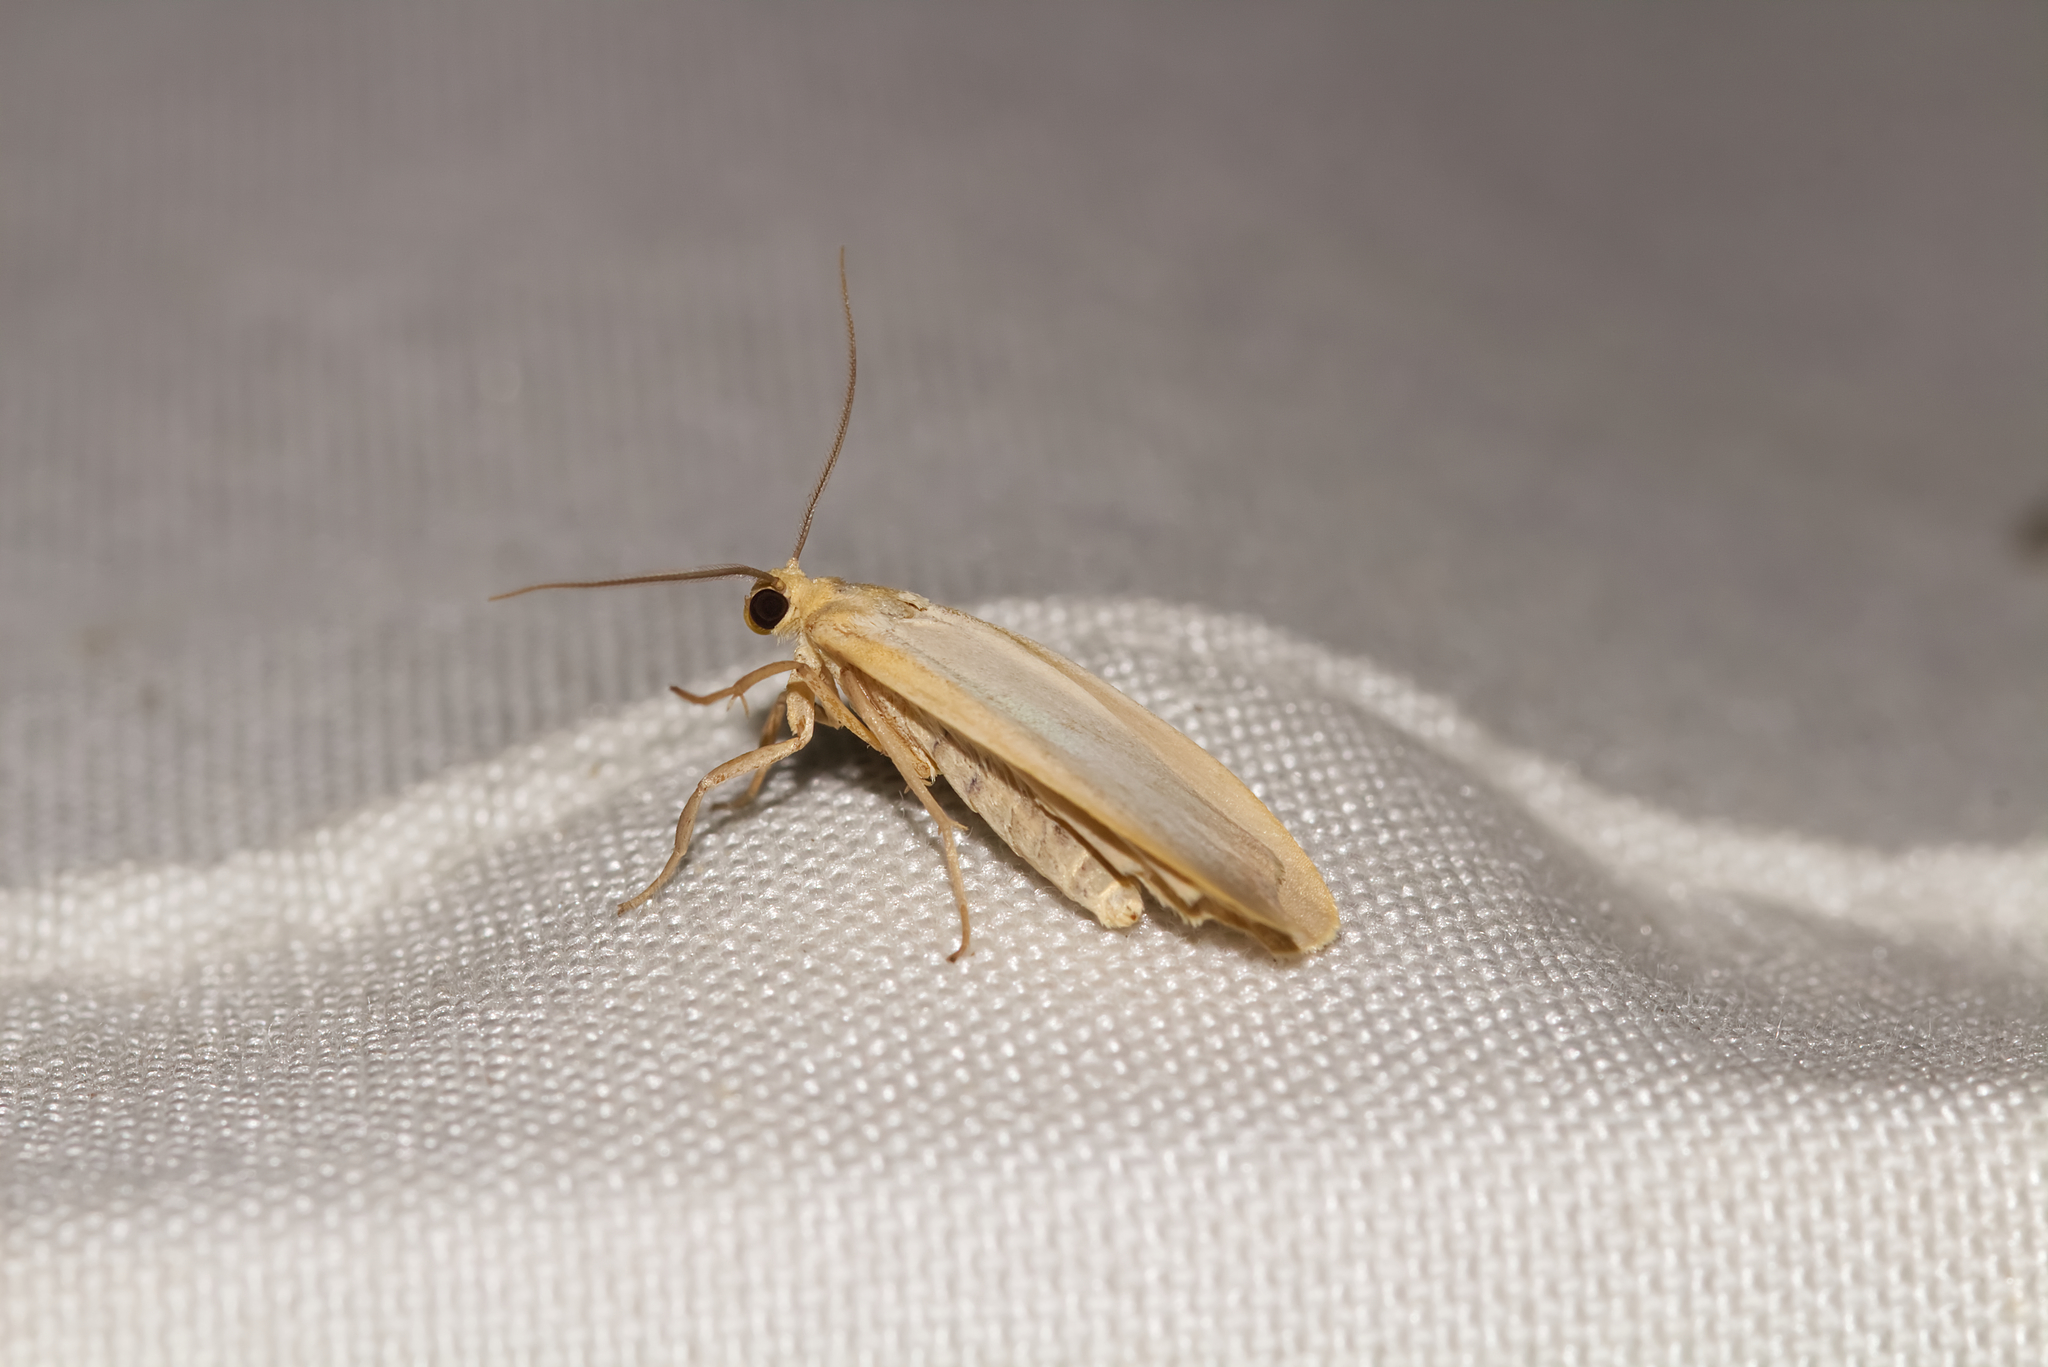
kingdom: Animalia
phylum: Arthropoda
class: Insecta
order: Lepidoptera
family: Erebidae
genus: Katha
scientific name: Katha depressa
